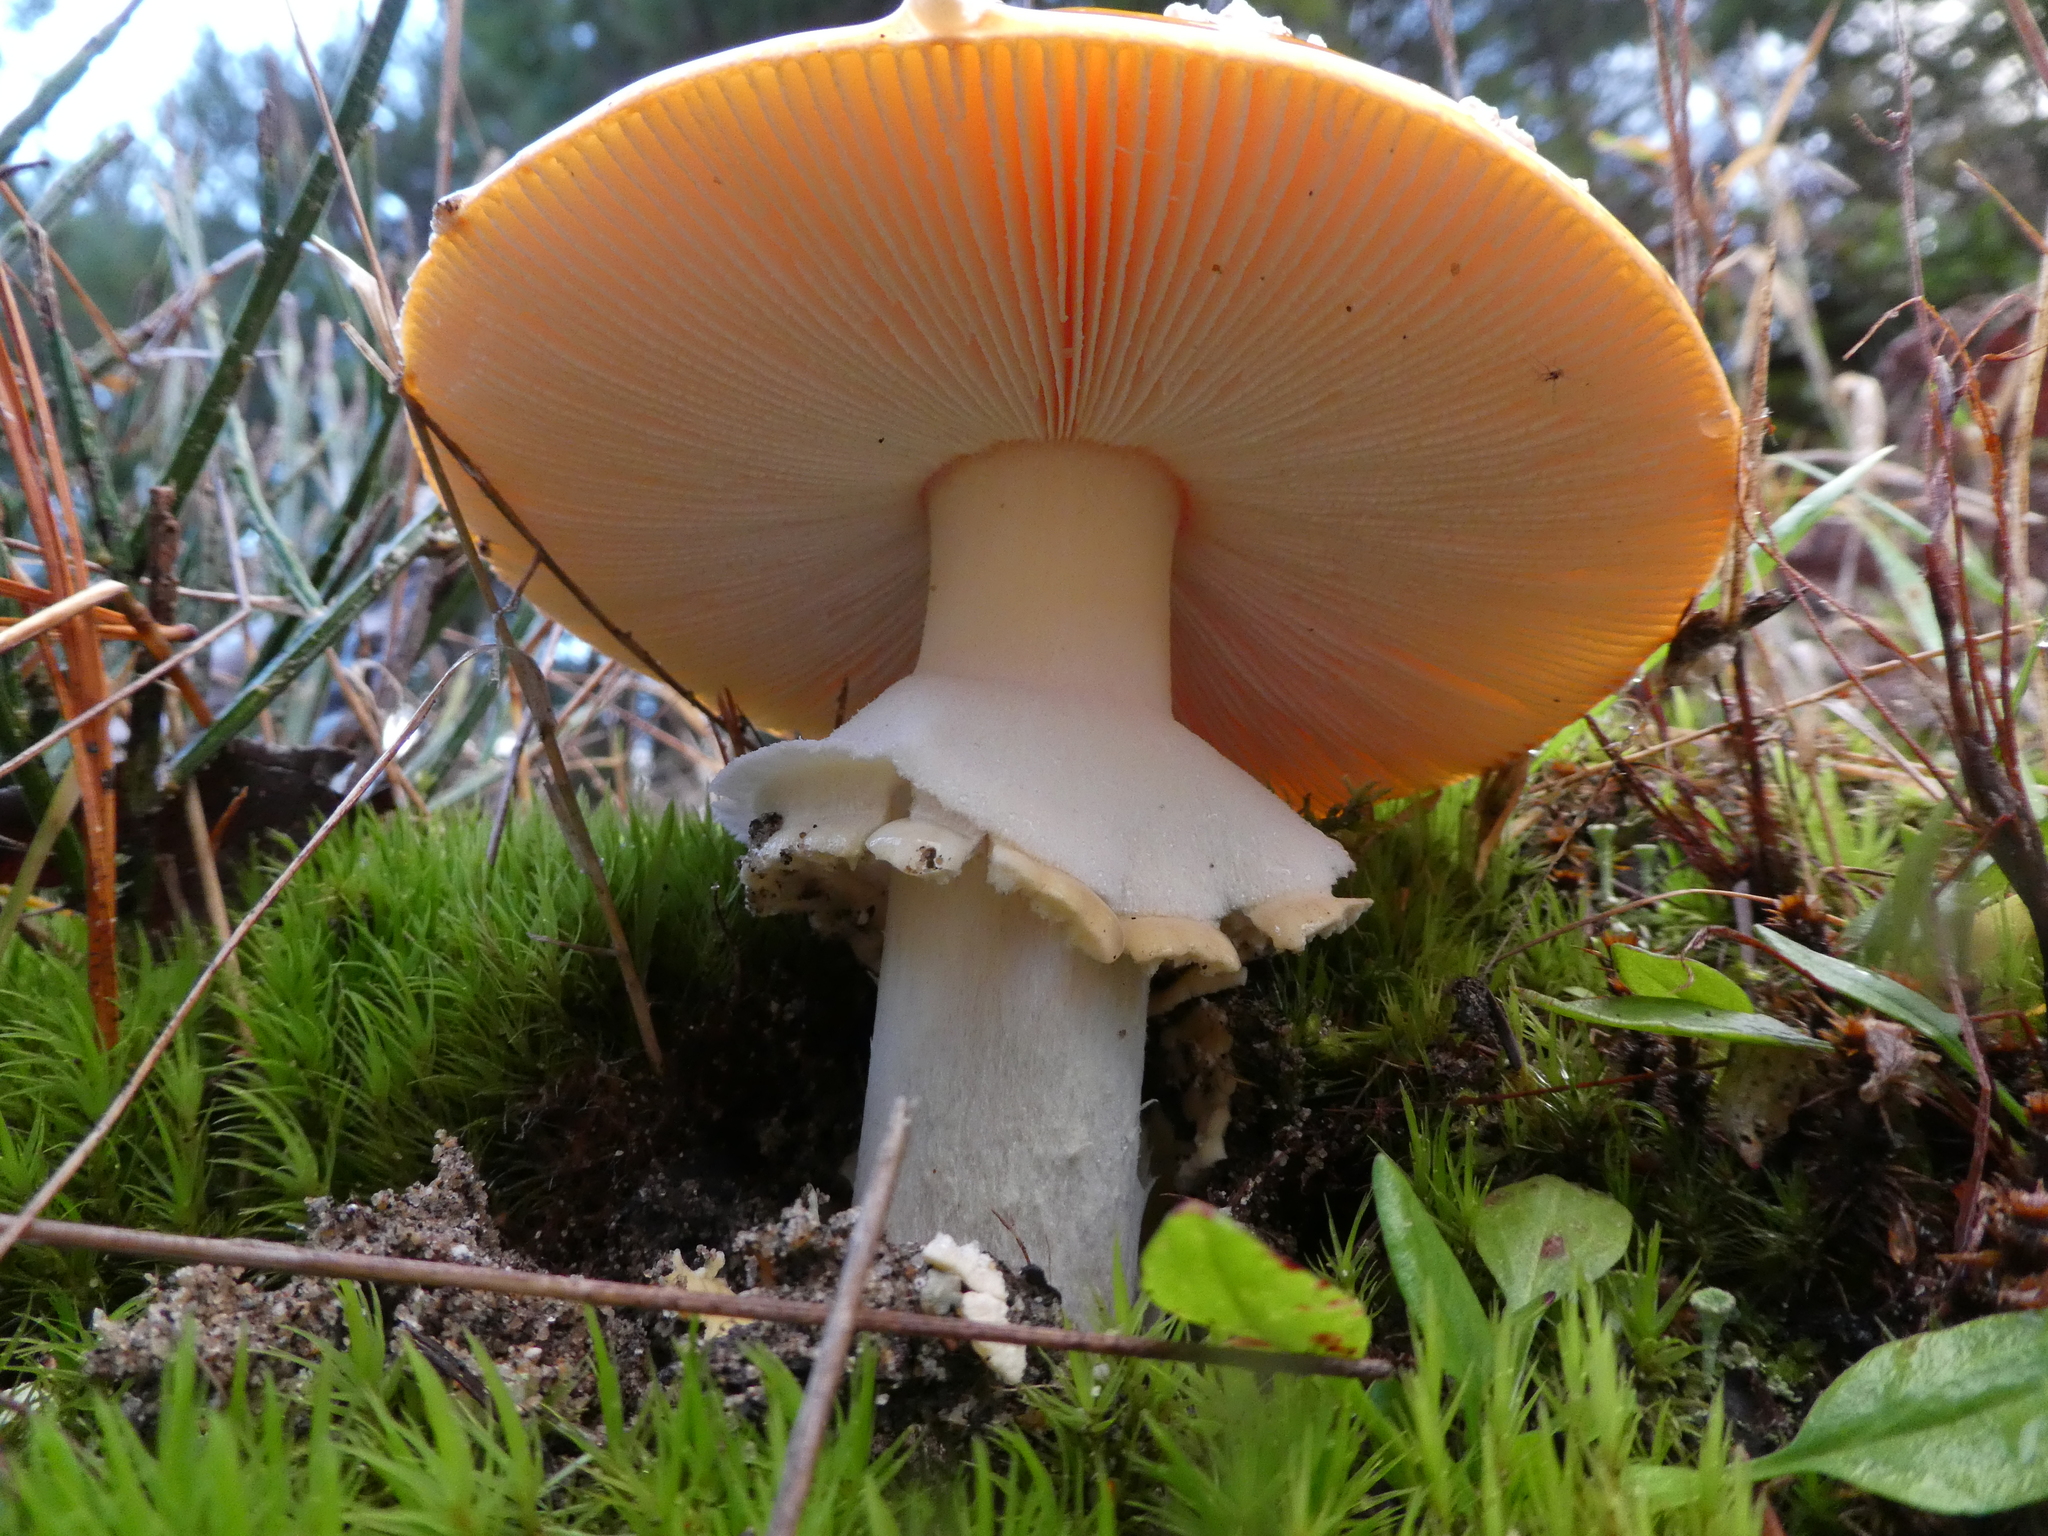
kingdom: Fungi
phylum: Basidiomycota
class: Agaricomycetes
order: Agaricales
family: Amanitaceae
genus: Amanita
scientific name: Amanita muscaria
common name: Fly agaric
